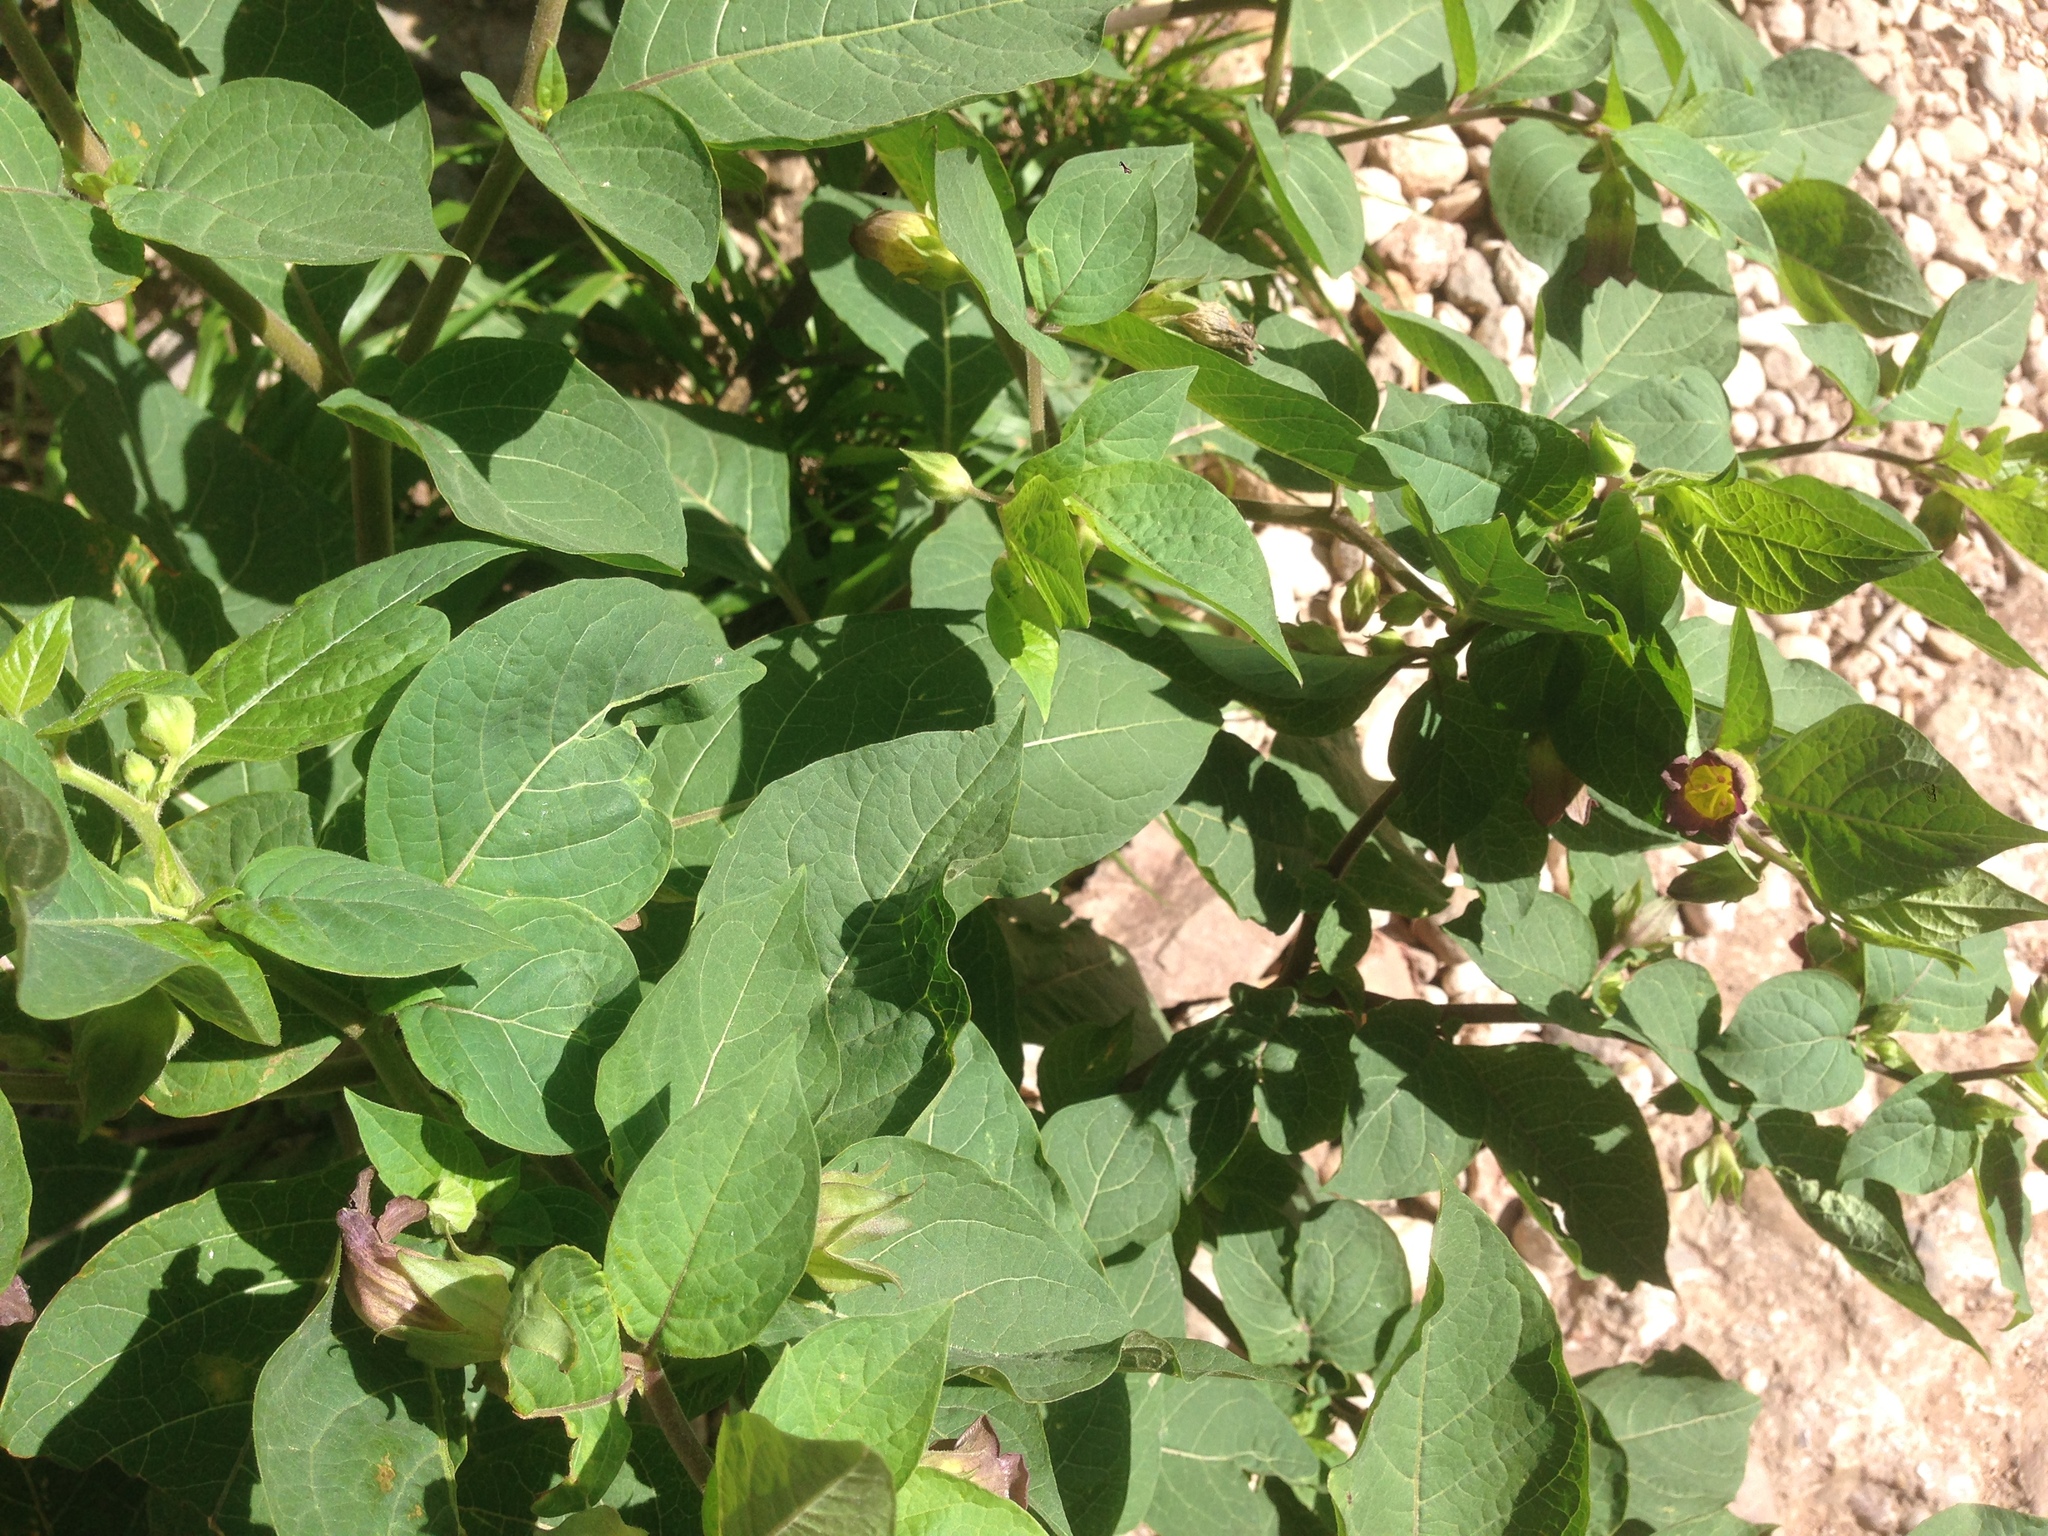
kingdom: Plantae
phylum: Tracheophyta
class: Magnoliopsida
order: Solanales
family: Solanaceae
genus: Atropa
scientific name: Atropa belladonna
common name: Deadly nightshade
